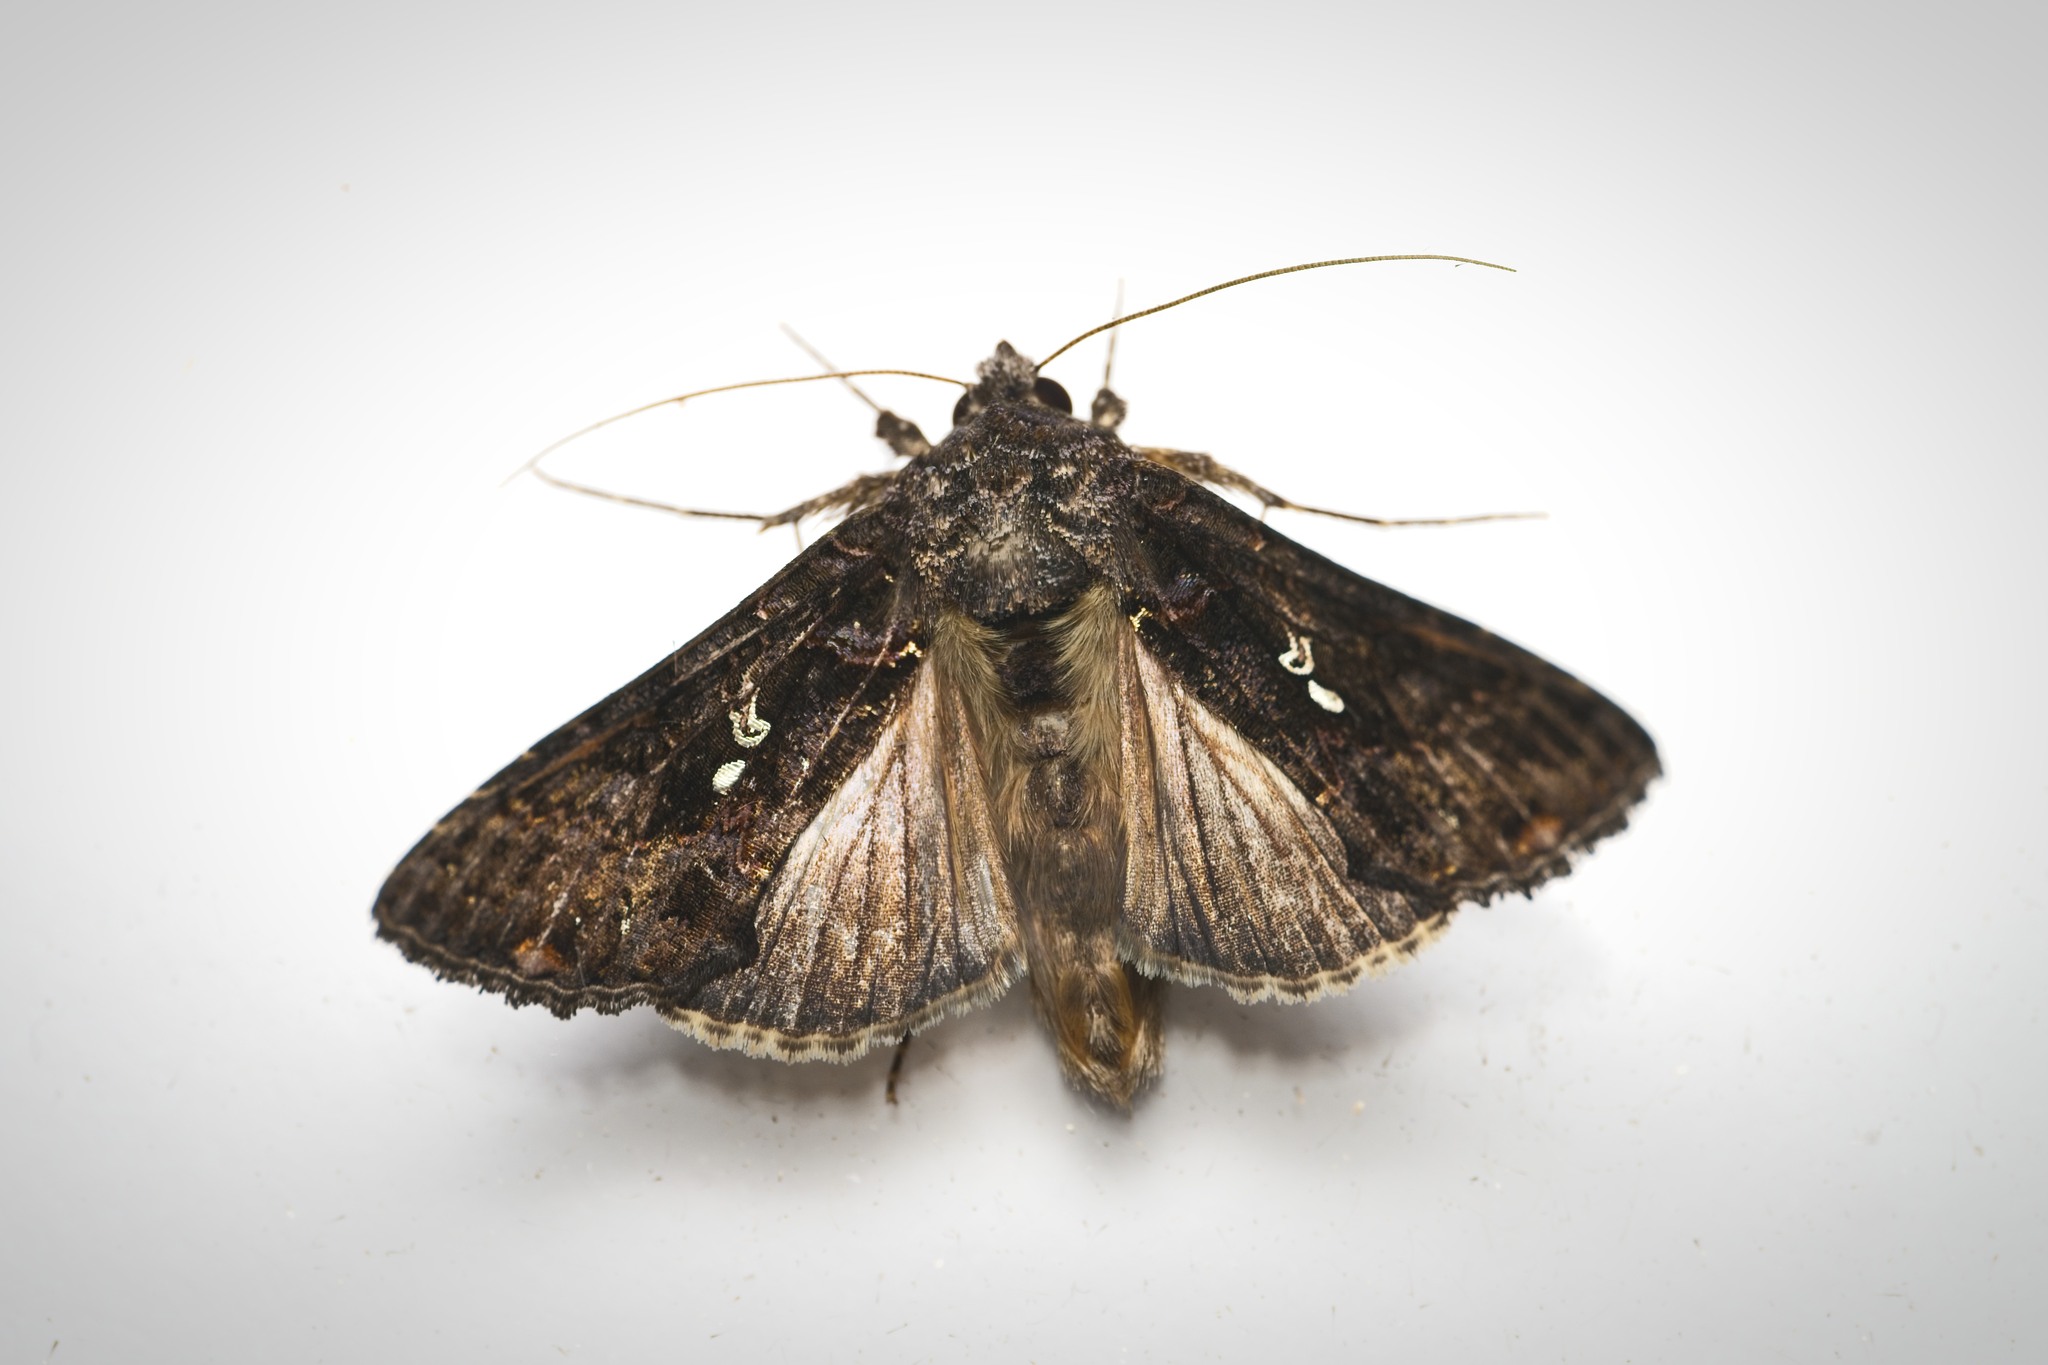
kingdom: Animalia
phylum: Arthropoda
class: Insecta
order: Lepidoptera
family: Noctuidae
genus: Ctenoplusia
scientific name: Ctenoplusia limbirena
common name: Scar bank gem
